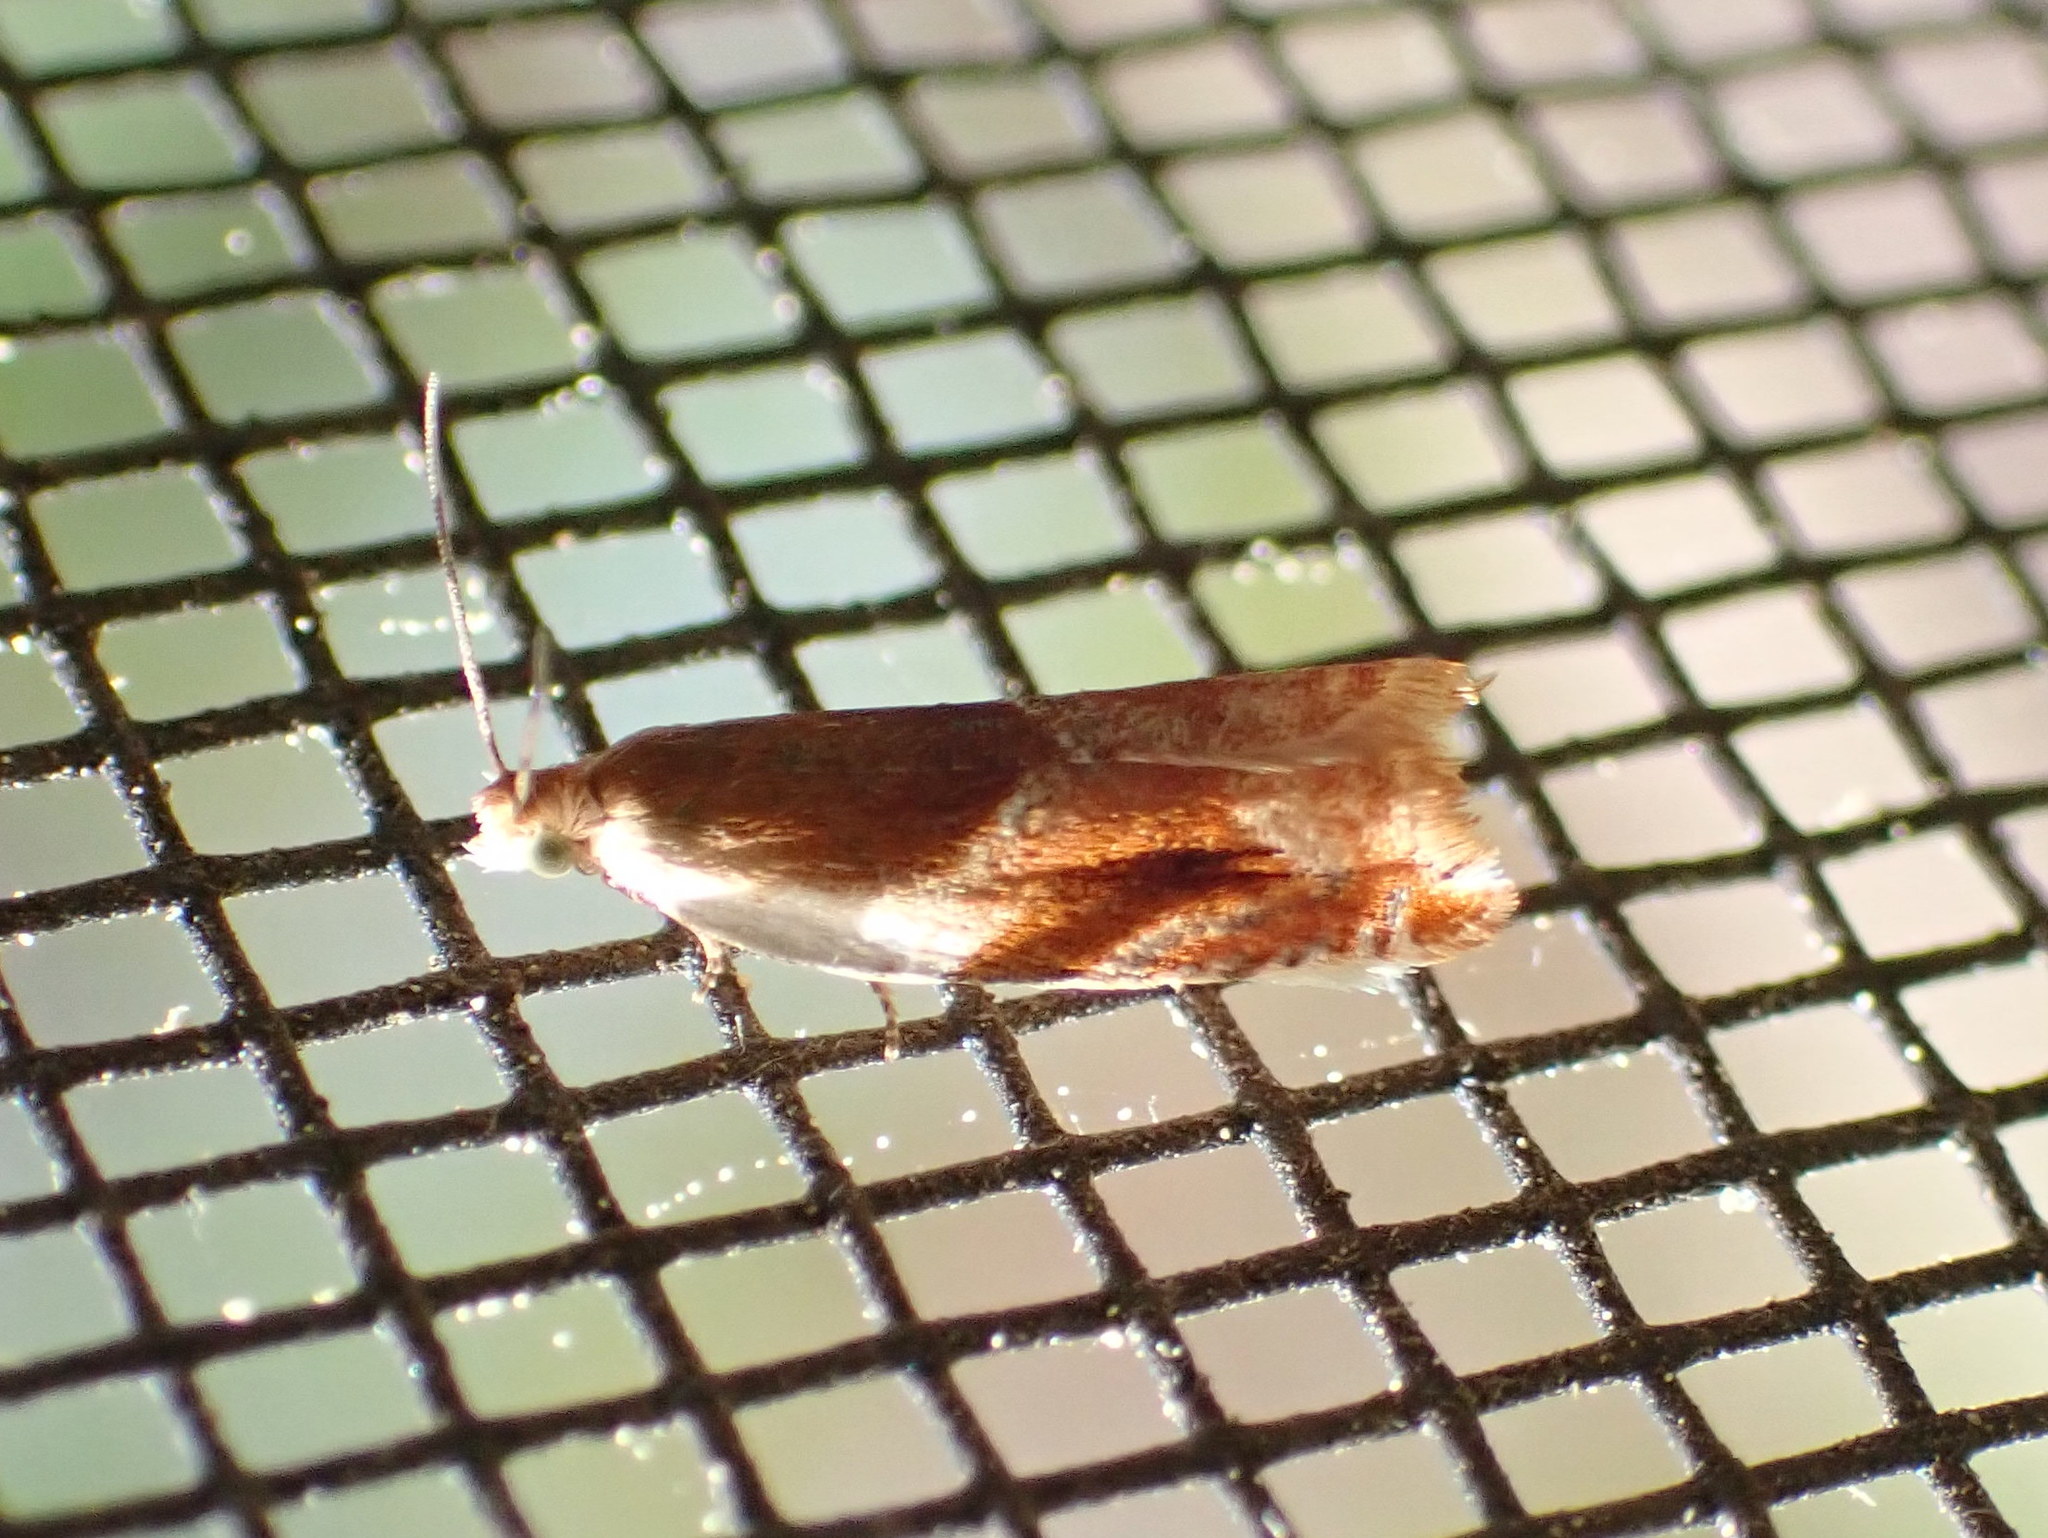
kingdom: Animalia
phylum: Arthropoda
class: Insecta
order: Lepidoptera
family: Tortricidae
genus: Ancylis
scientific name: Ancylis fuscociliana
